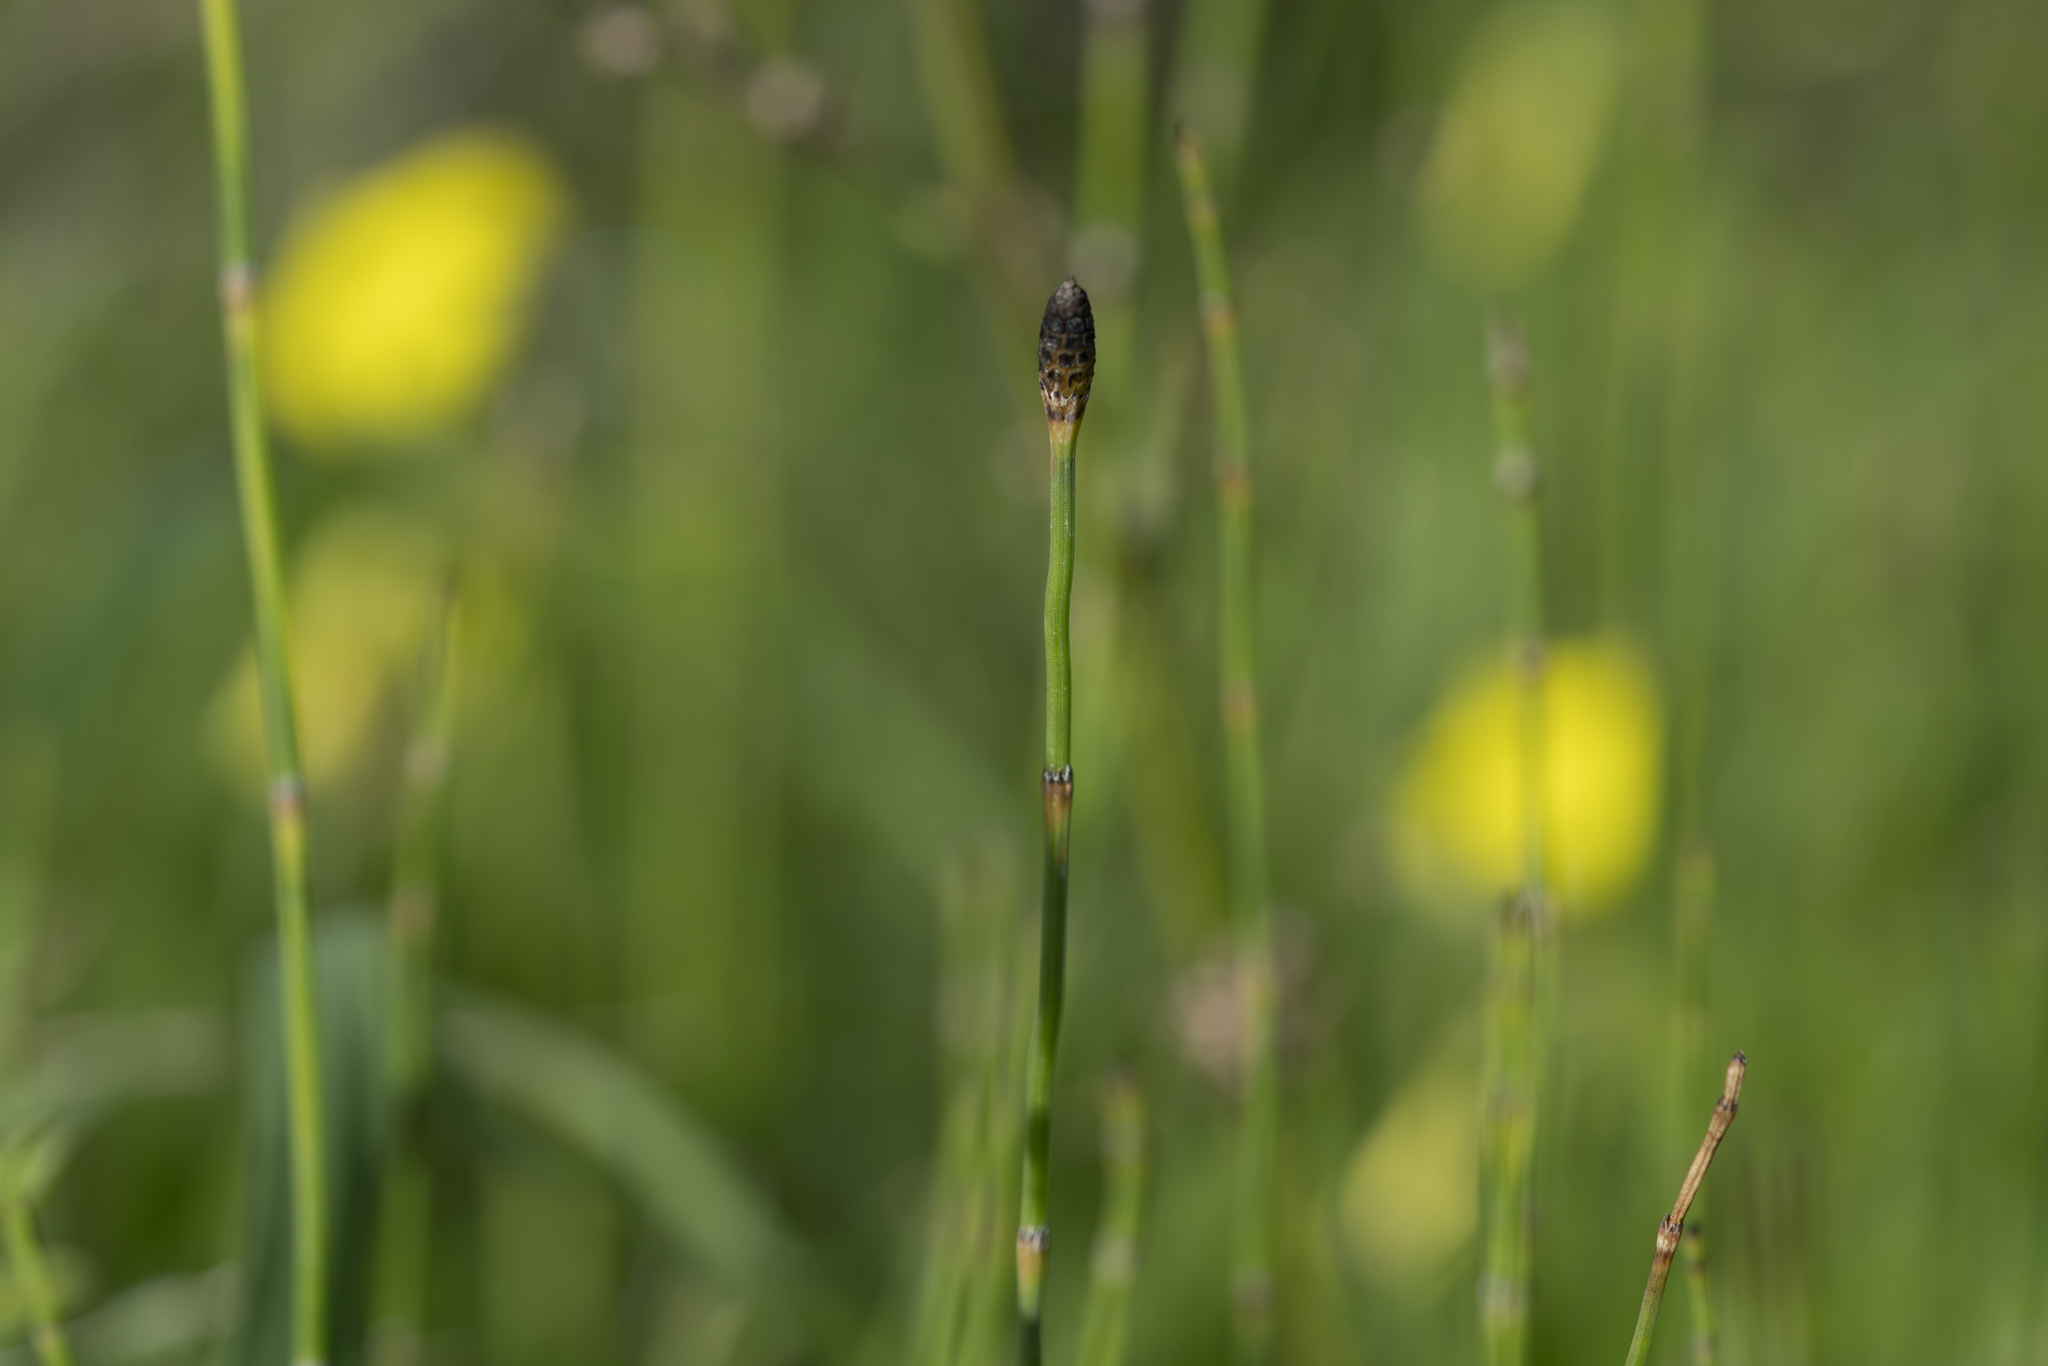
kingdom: Plantae
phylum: Tracheophyta
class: Polypodiopsida
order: Equisetales
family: Equisetaceae
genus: Equisetum
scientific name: Equisetum ramosissimum
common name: Branched horsetail
